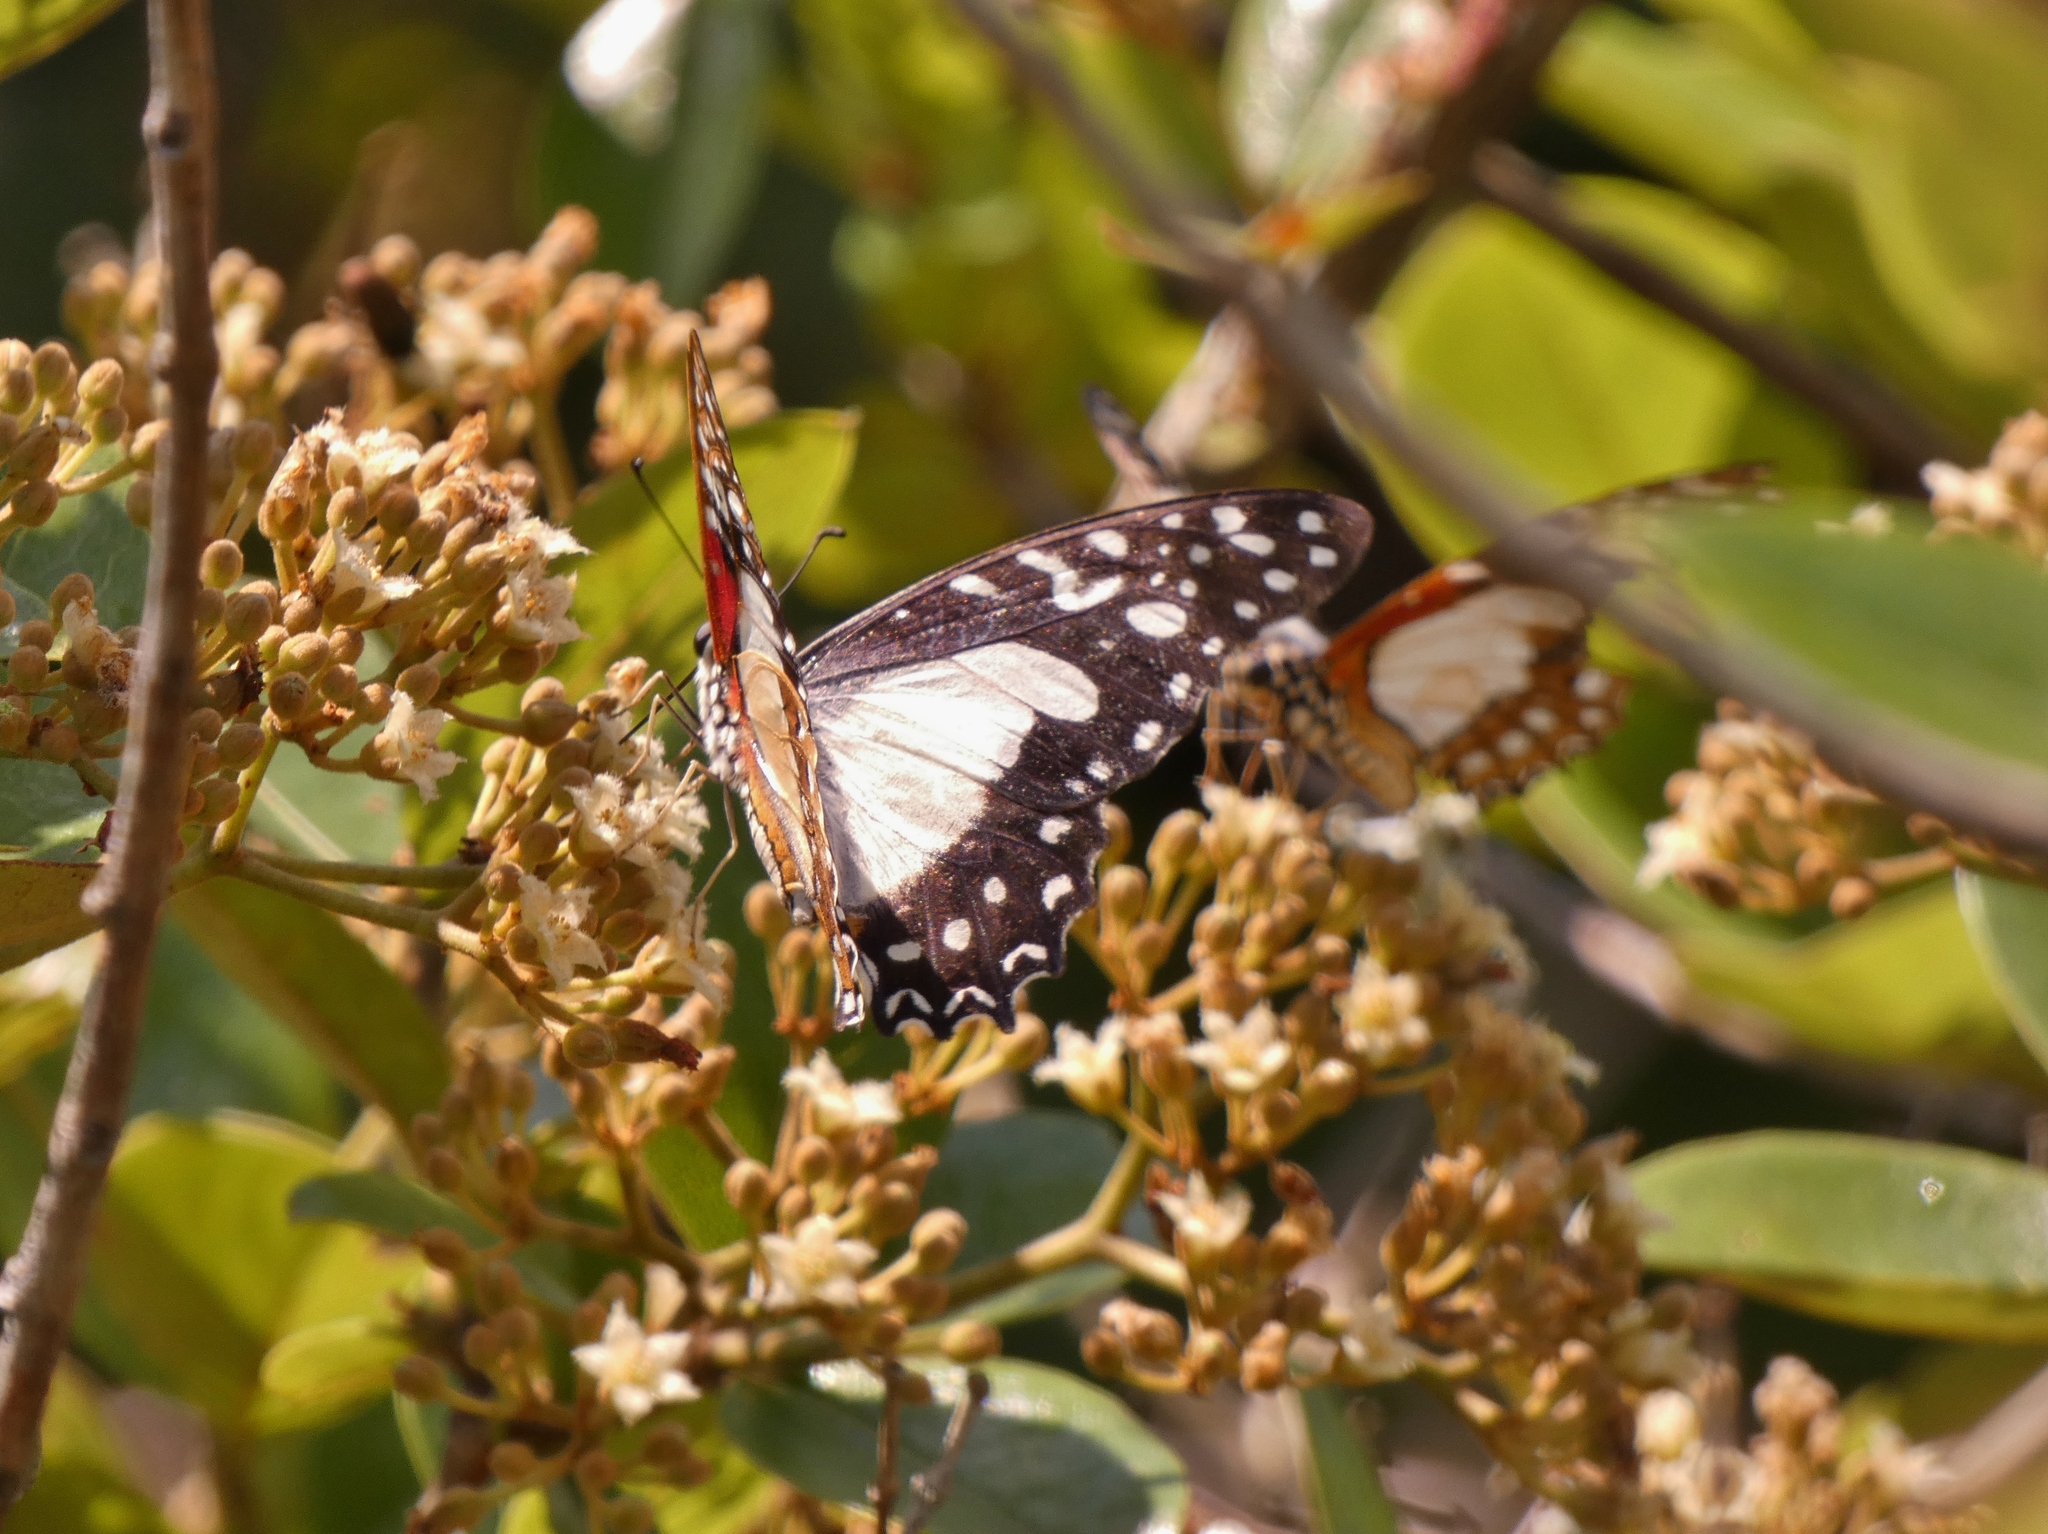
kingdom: Animalia
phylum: Arthropoda
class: Insecta
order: Lepidoptera
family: Papilionidae
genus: Graphium
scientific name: Graphium angolanus
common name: Angola white-lady swordtail
